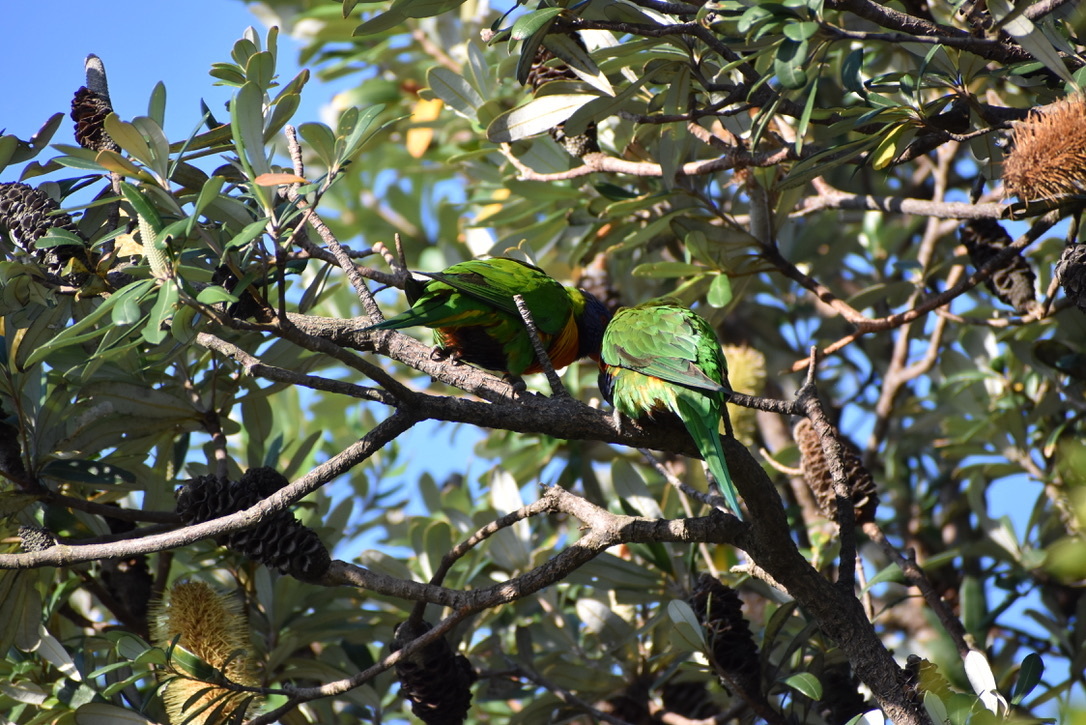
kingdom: Animalia
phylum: Chordata
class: Aves
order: Psittaciformes
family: Psittacidae
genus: Trichoglossus
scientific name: Trichoglossus haematodus
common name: Coconut lorikeet
